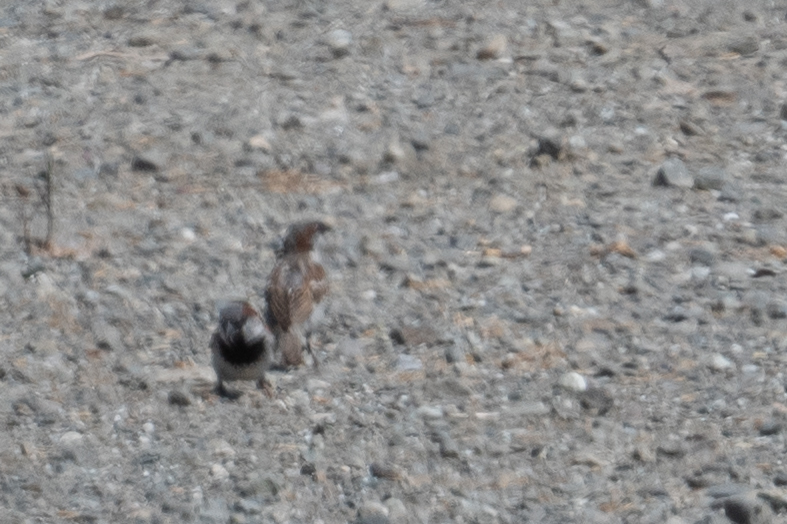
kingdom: Animalia
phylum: Chordata
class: Aves
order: Passeriformes
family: Passeridae
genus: Passer
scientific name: Passer domesticus
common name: House sparrow
